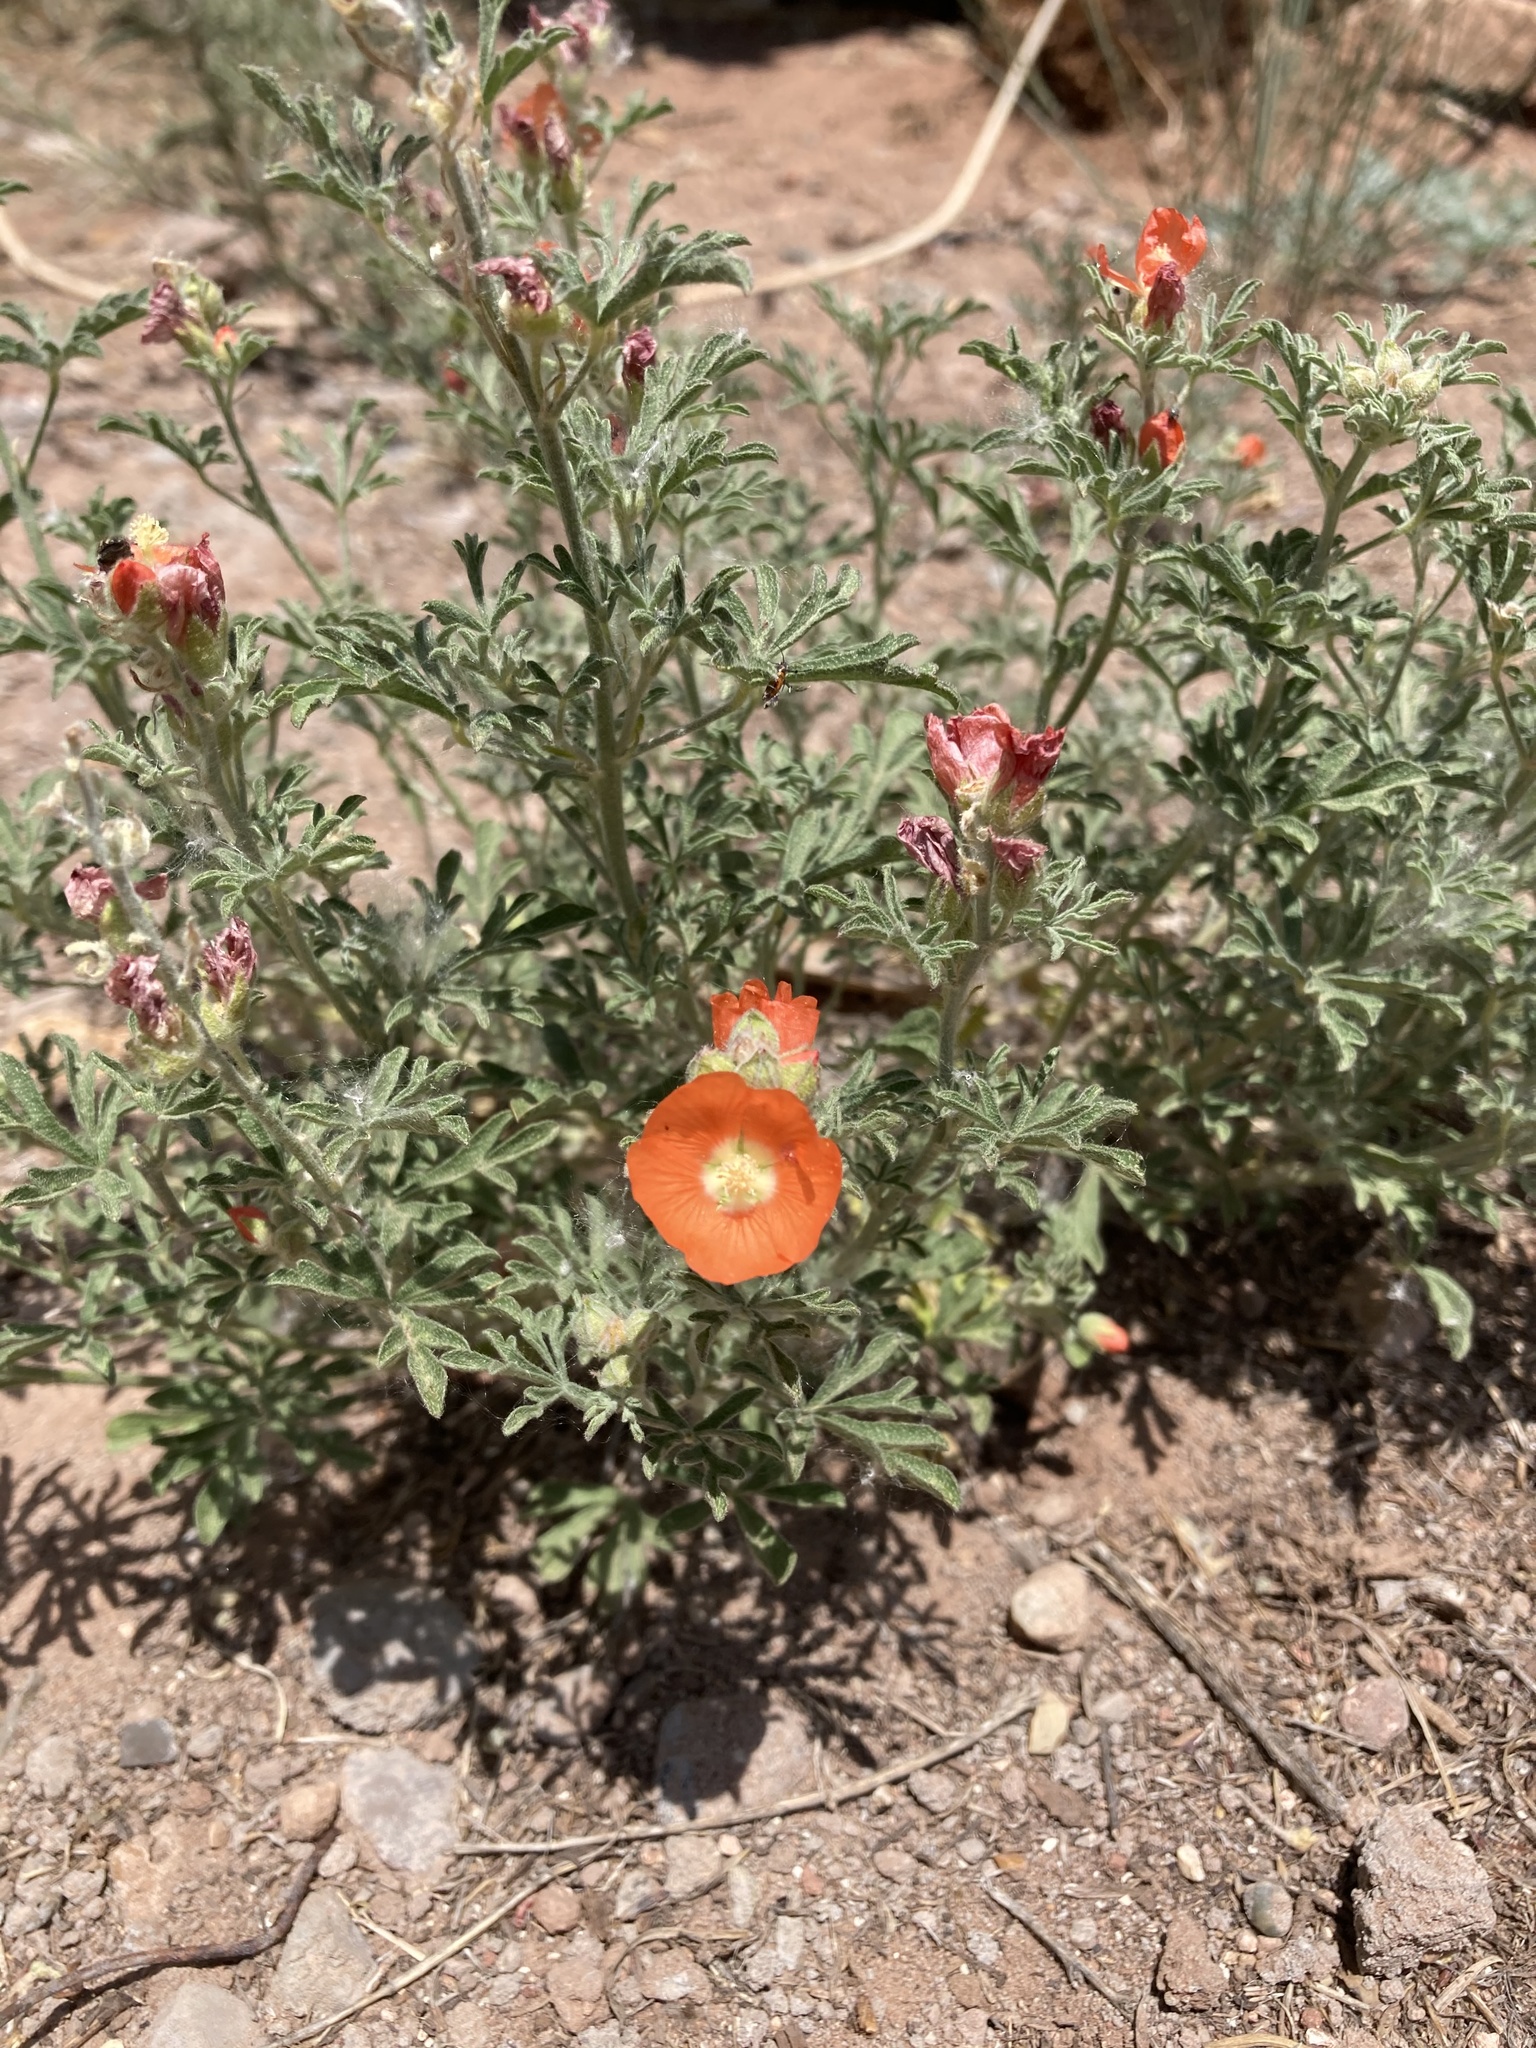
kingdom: Plantae
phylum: Tracheophyta
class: Magnoliopsida
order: Malvales
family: Malvaceae
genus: Sphaeralcea
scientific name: Sphaeralcea coccinea
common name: Moss-rose
